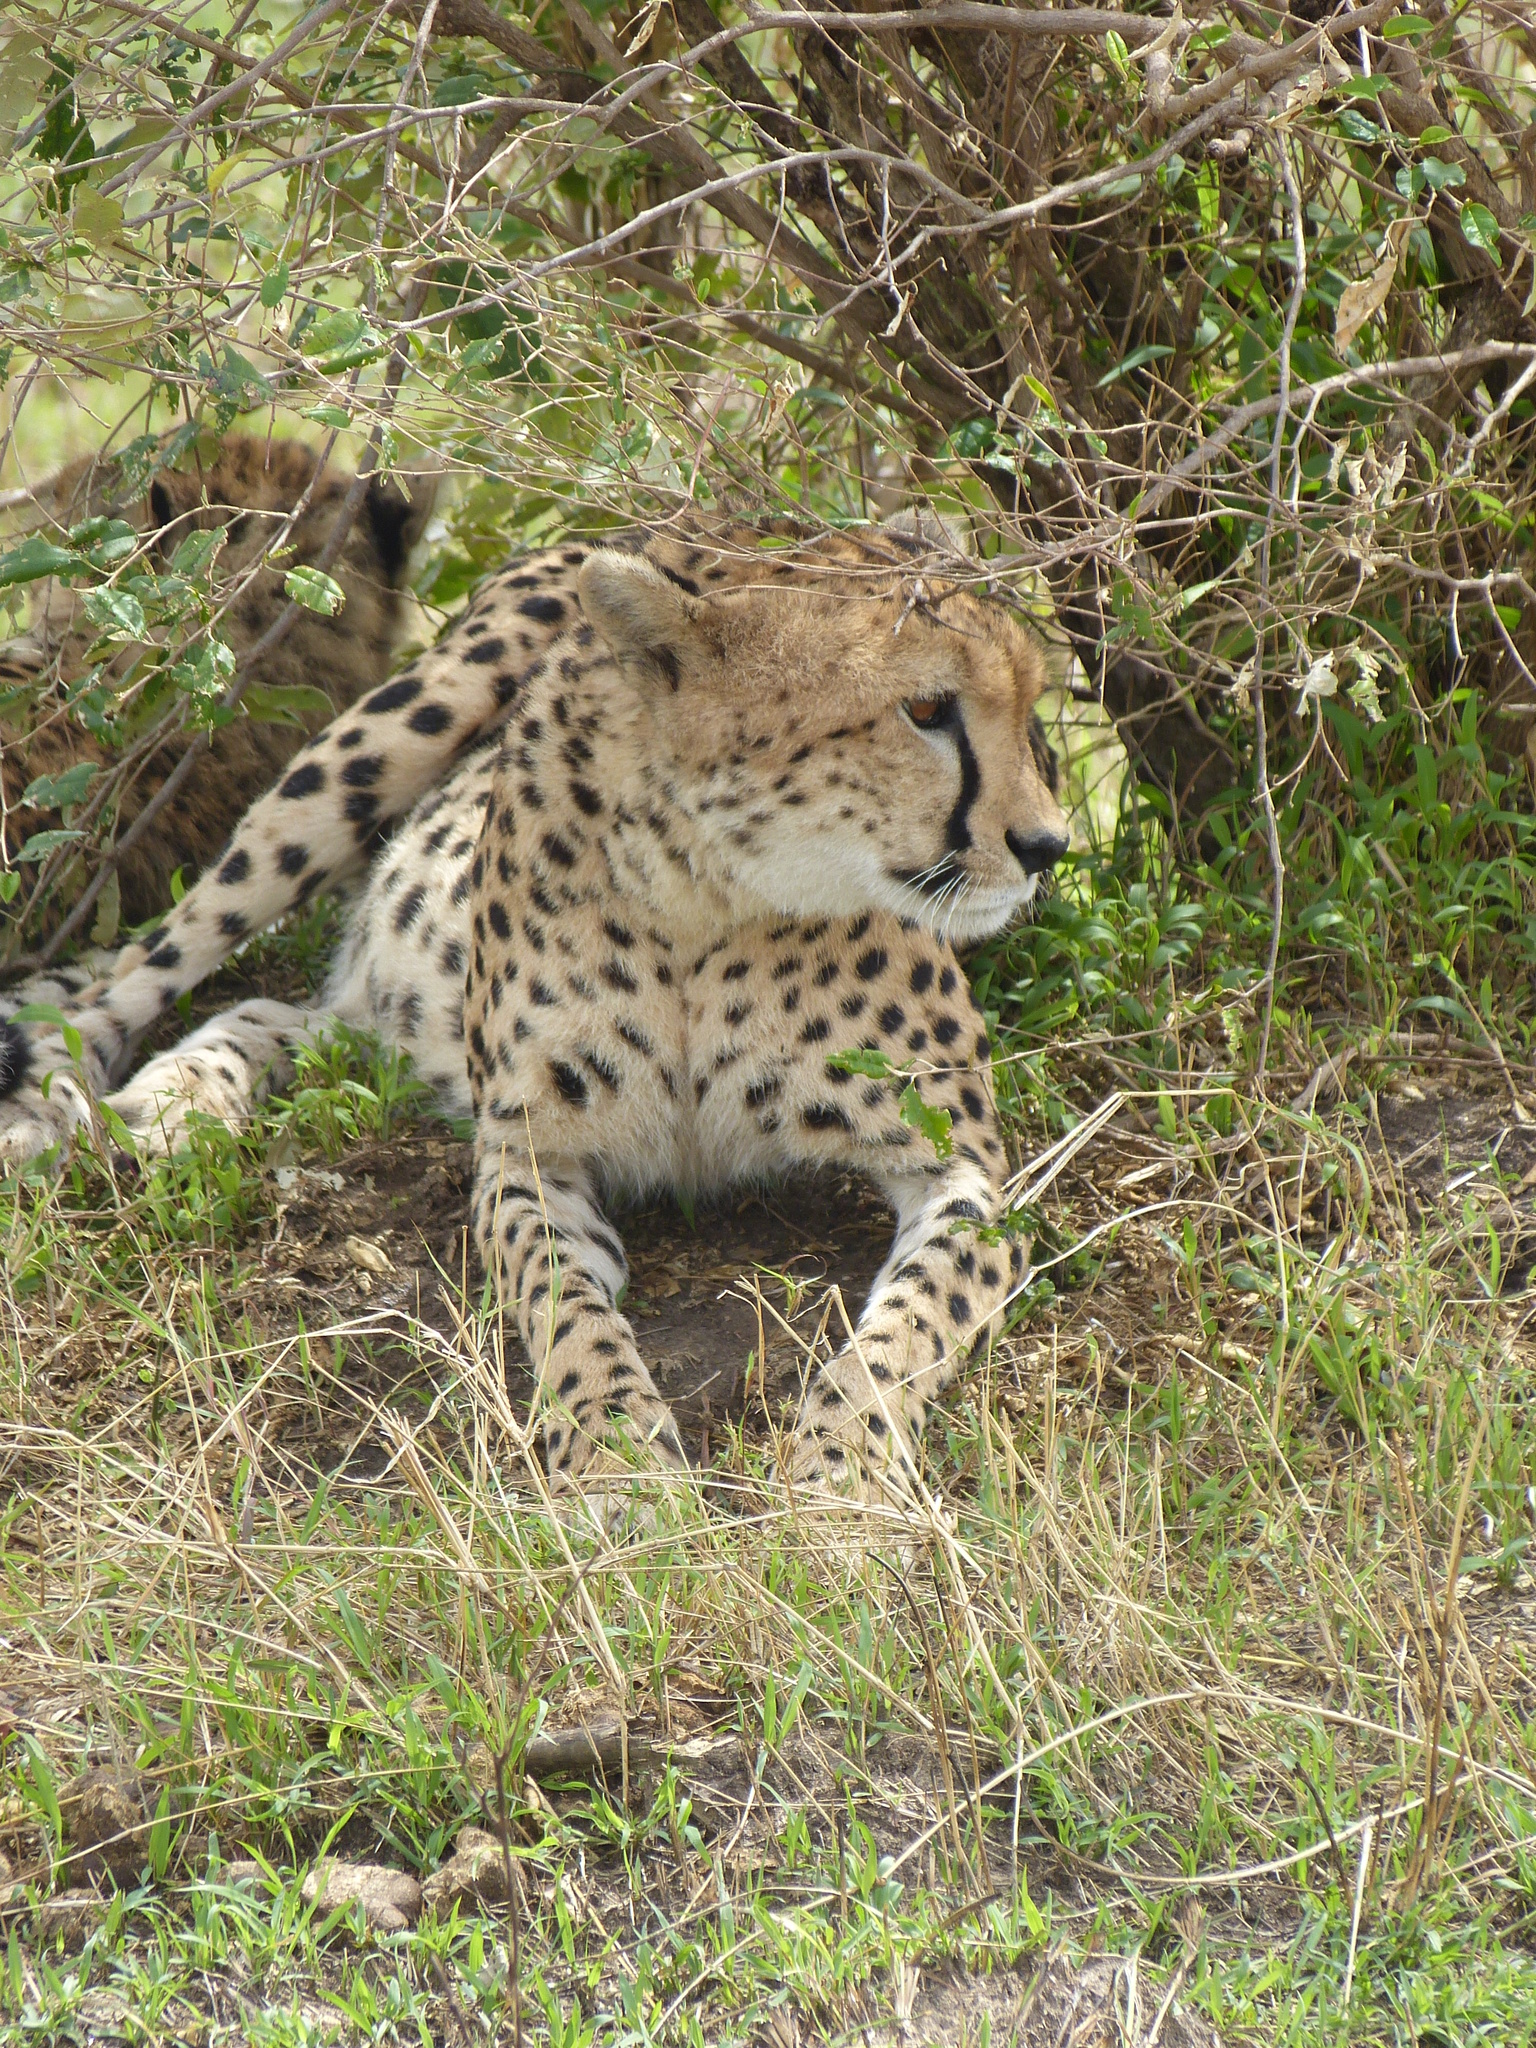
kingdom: Animalia
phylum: Chordata
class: Mammalia
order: Carnivora
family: Felidae
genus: Acinonyx
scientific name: Acinonyx jubatus
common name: Cheetah
